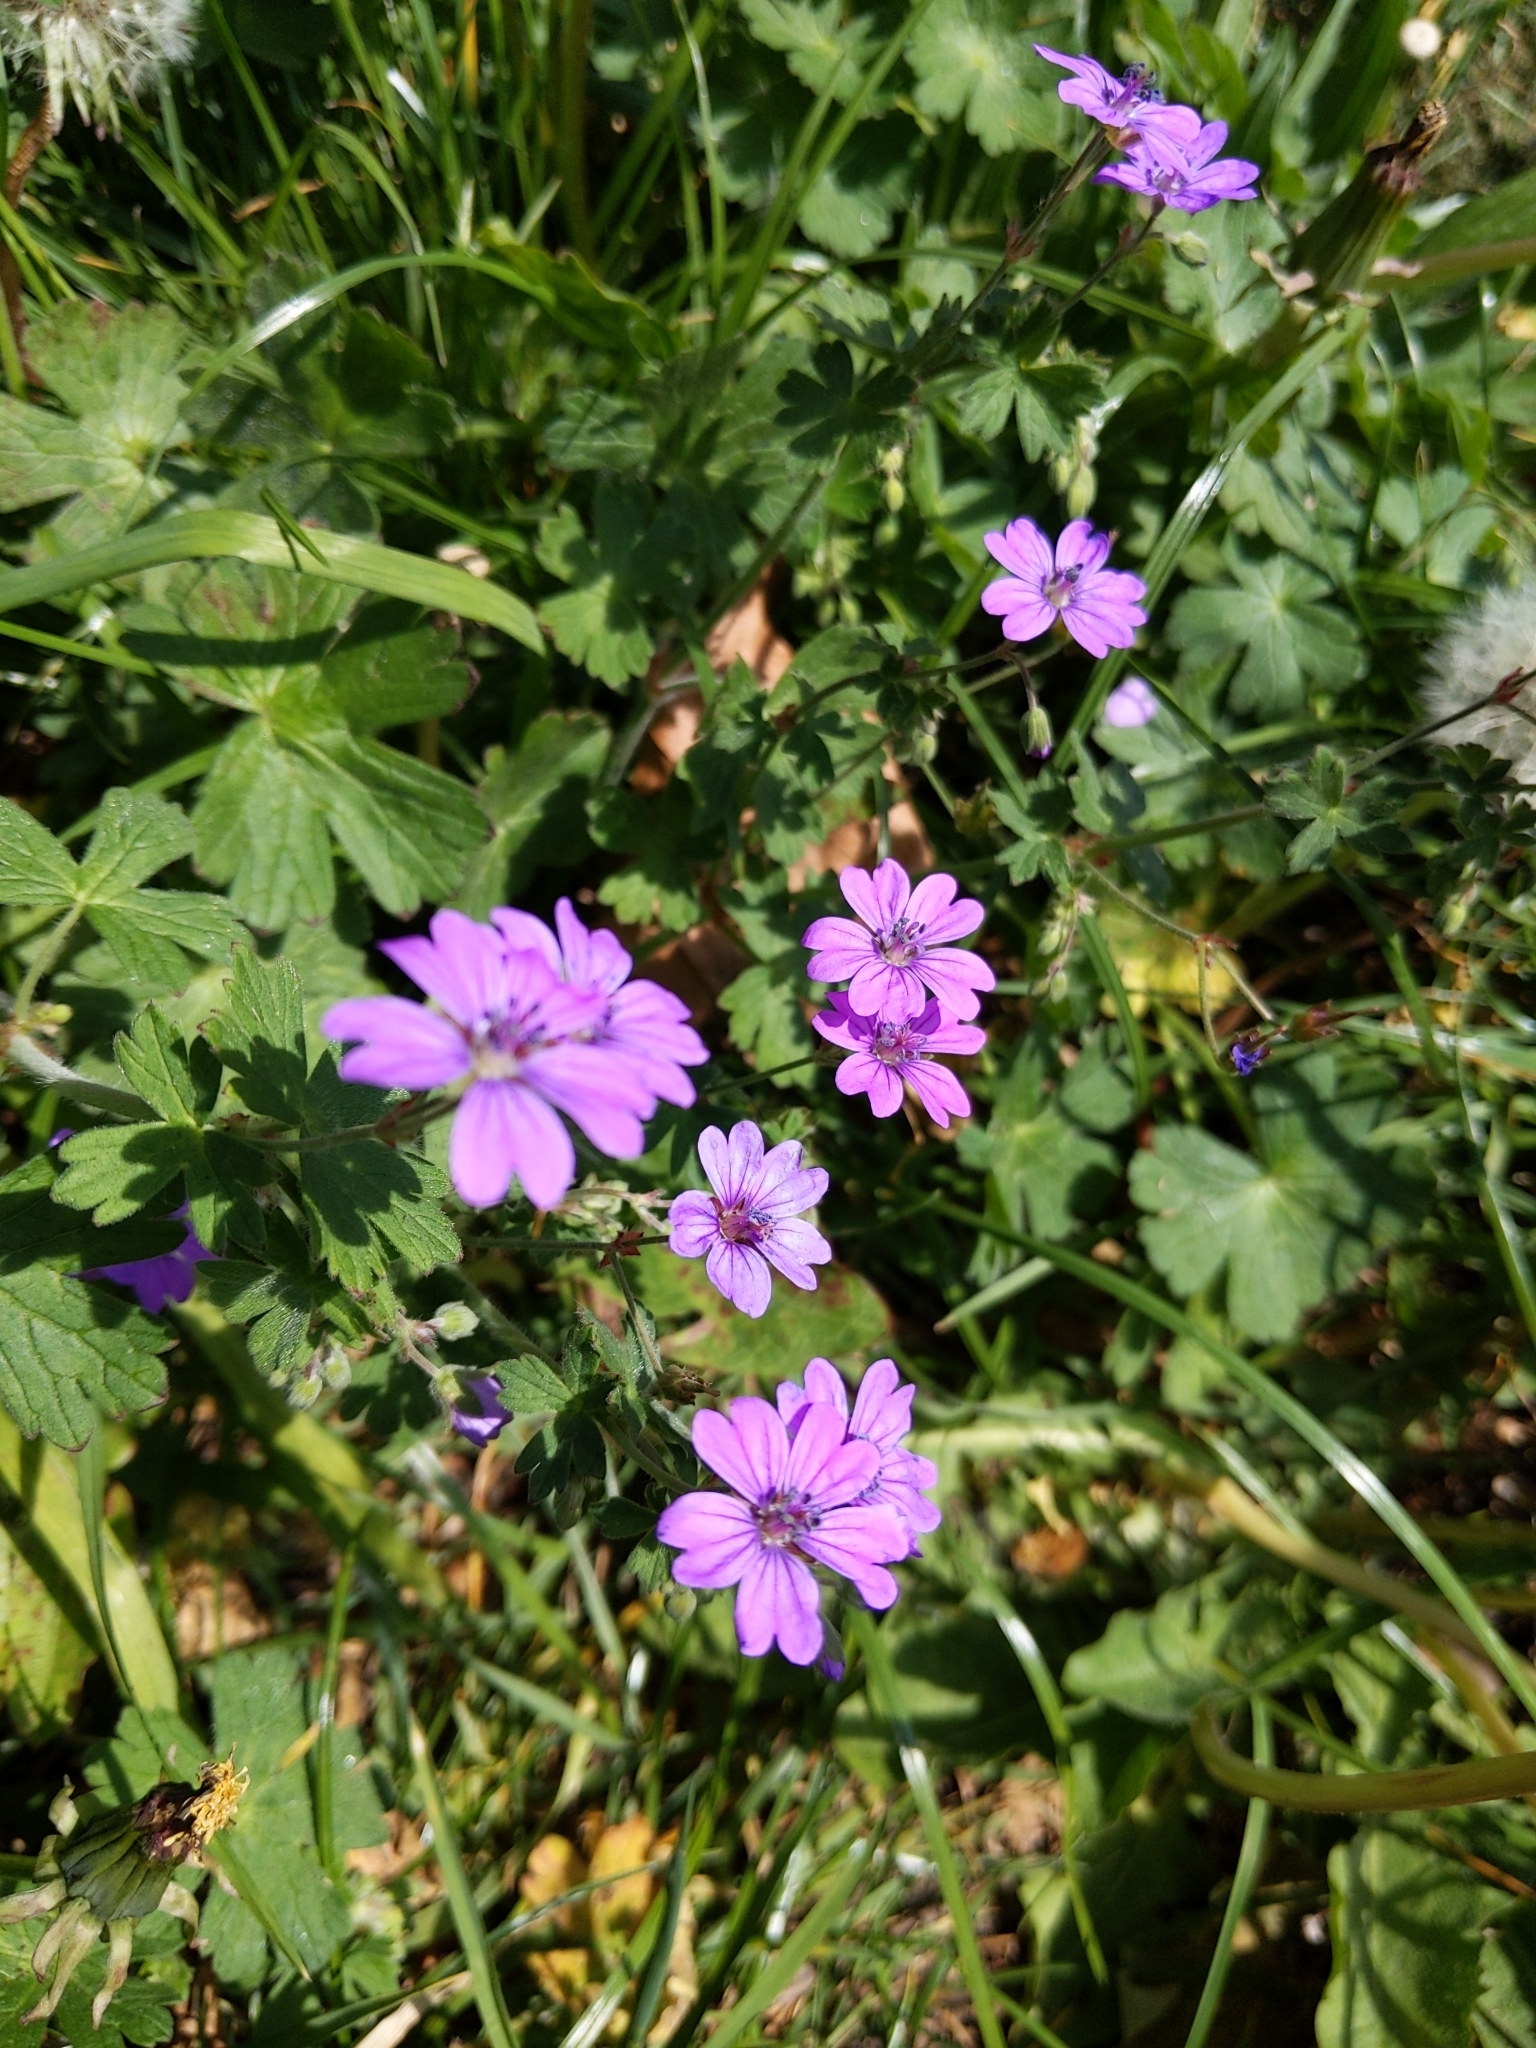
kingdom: Plantae
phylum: Tracheophyta
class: Magnoliopsida
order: Geraniales
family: Geraniaceae
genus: Geranium
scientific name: Geranium pyrenaicum
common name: Hedgerow crane's-bill
